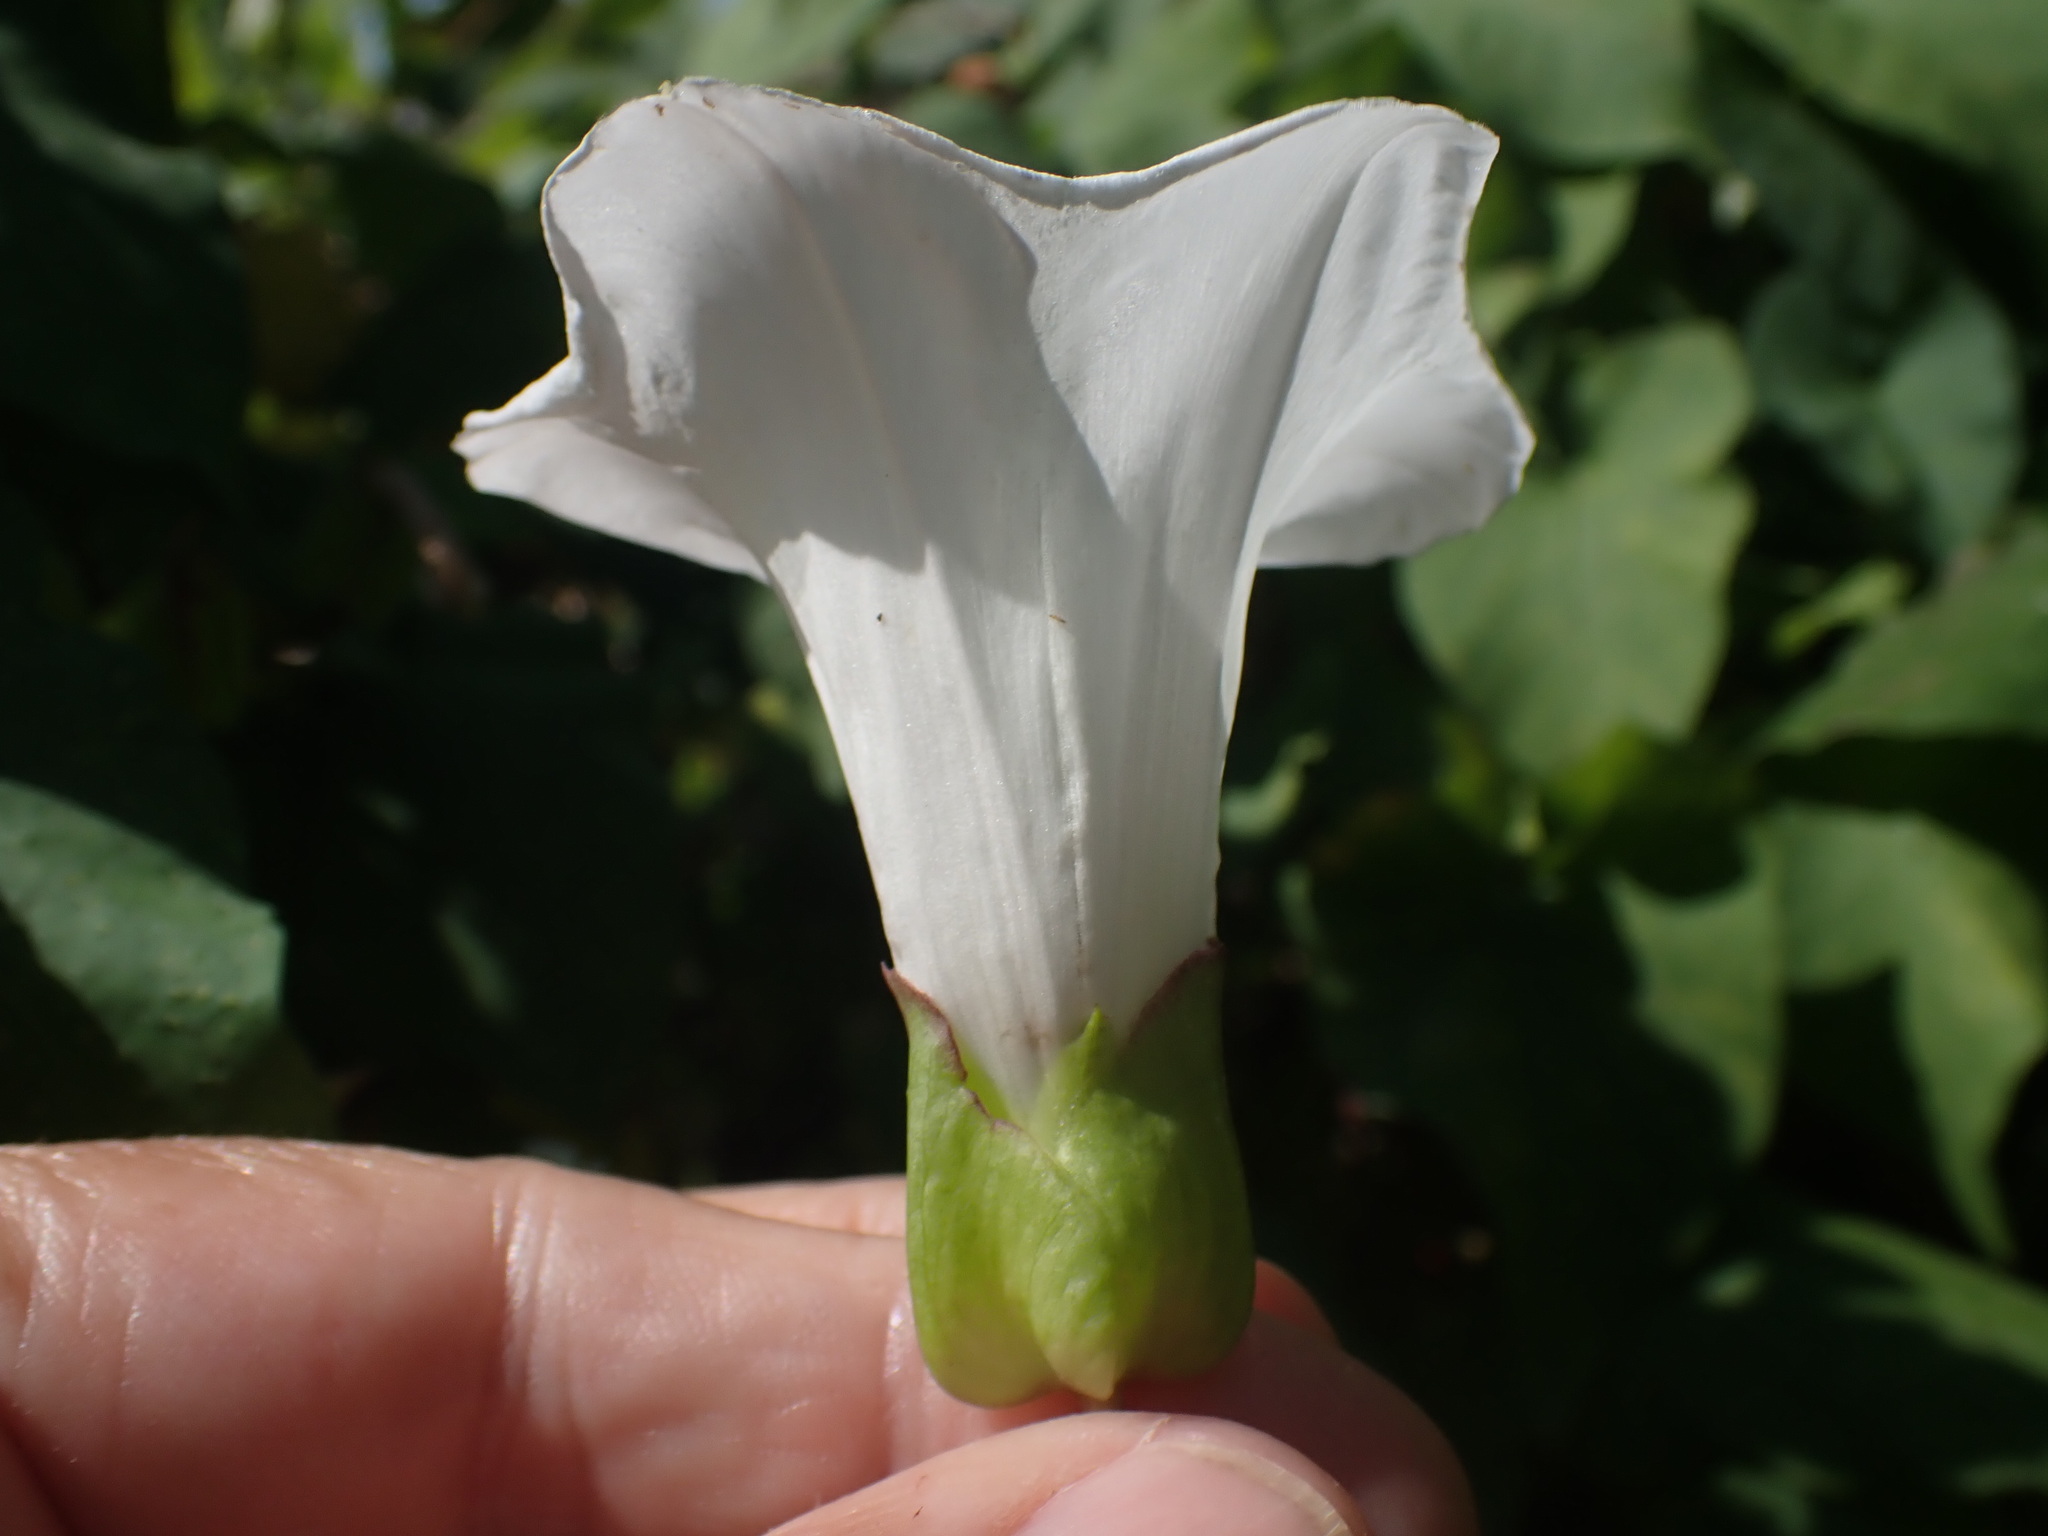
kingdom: Plantae
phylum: Tracheophyta
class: Magnoliopsida
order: Solanales
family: Convolvulaceae
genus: Calystegia
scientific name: Calystegia sepium
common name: Hedge bindweed
